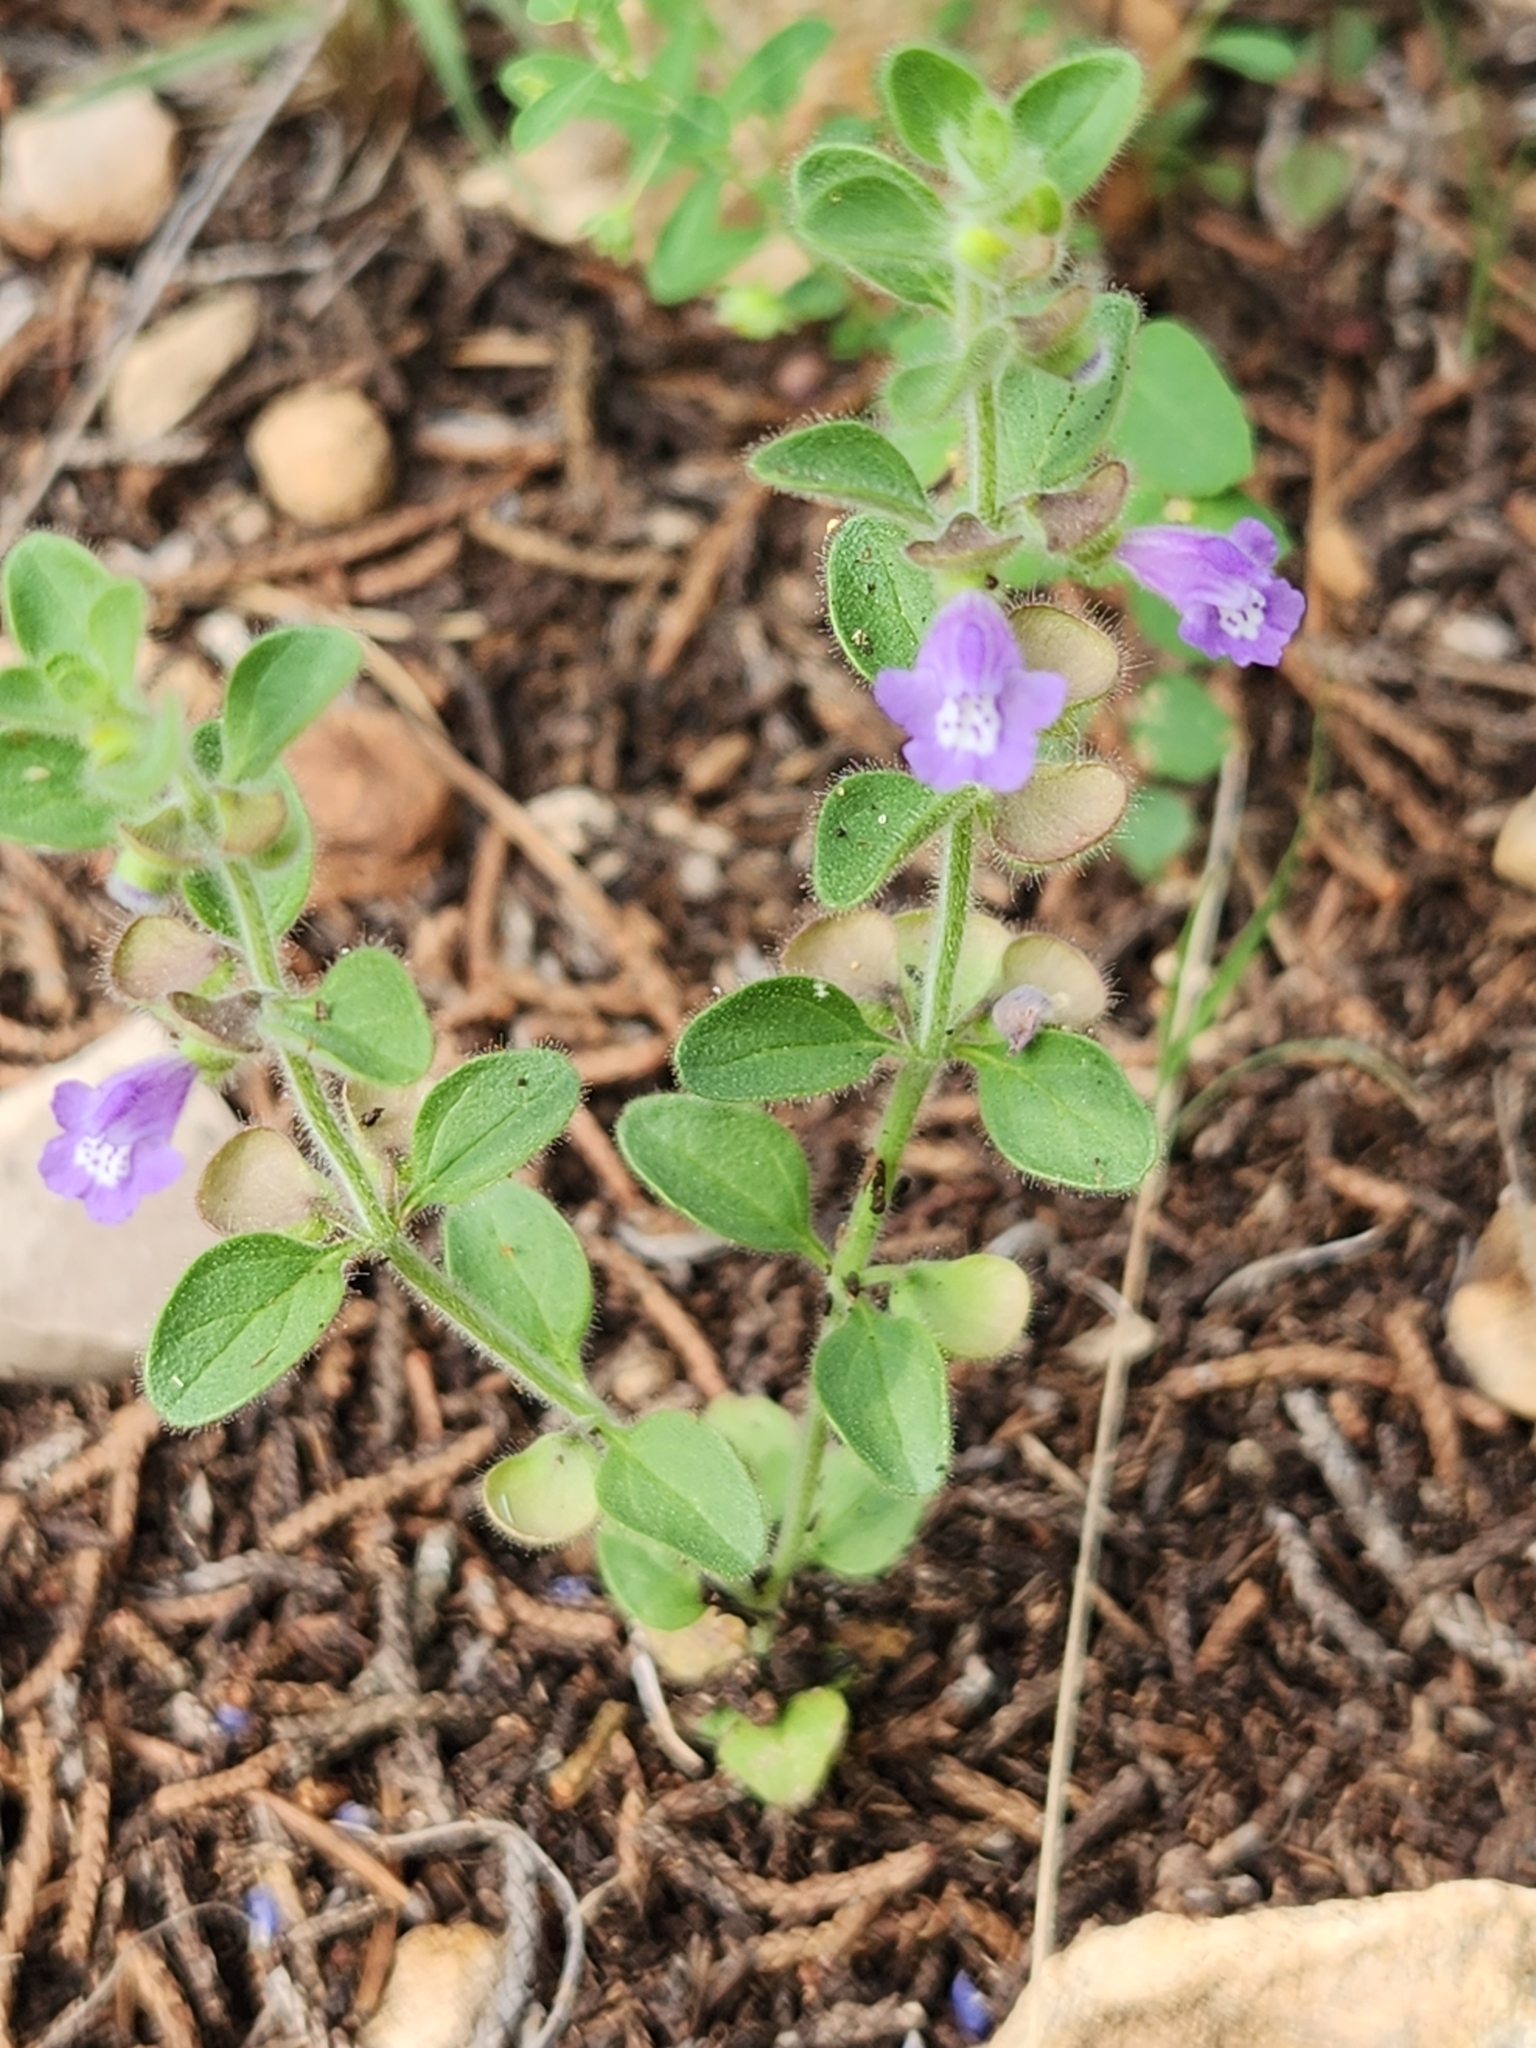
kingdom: Plantae
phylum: Tracheophyta
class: Magnoliopsida
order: Lamiales
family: Lamiaceae
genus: Scutellaria
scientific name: Scutellaria drummondii
